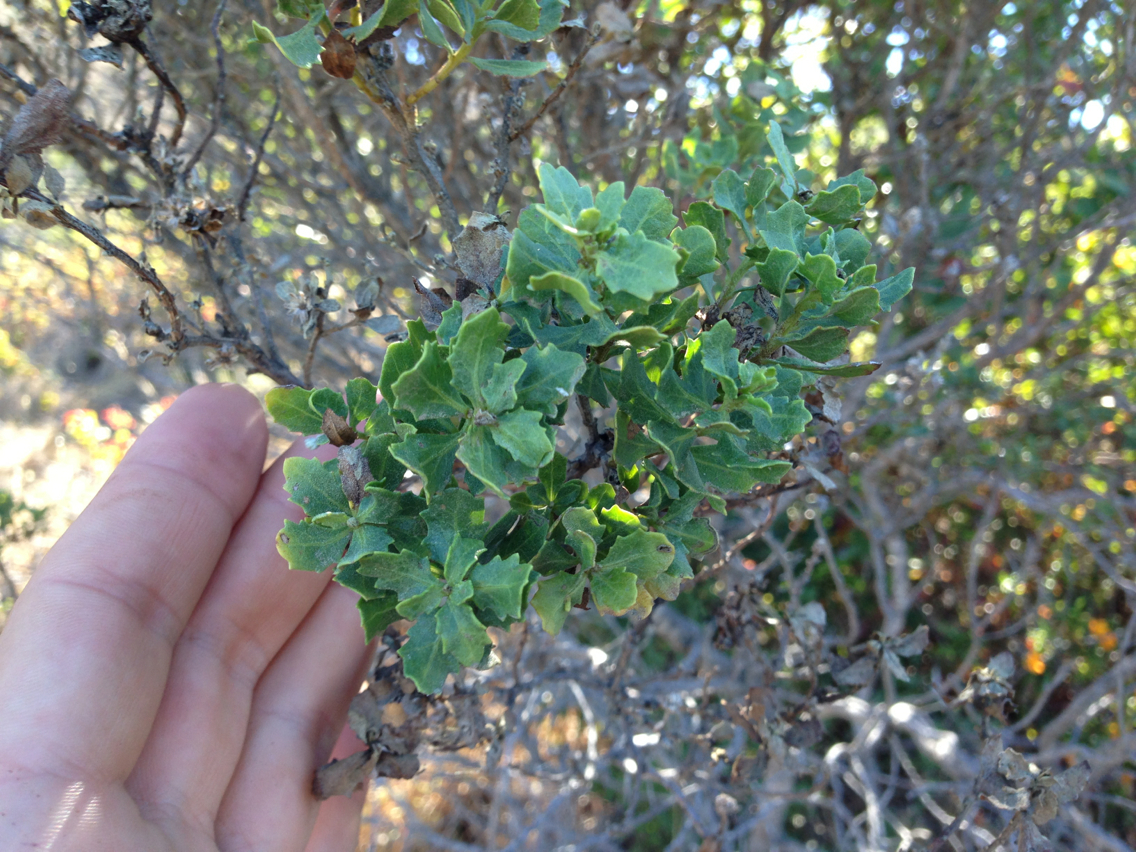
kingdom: Plantae
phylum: Tracheophyta
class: Magnoliopsida
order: Asterales
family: Asteraceae
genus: Baccharis
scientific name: Baccharis pilularis
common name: Coyotebrush
